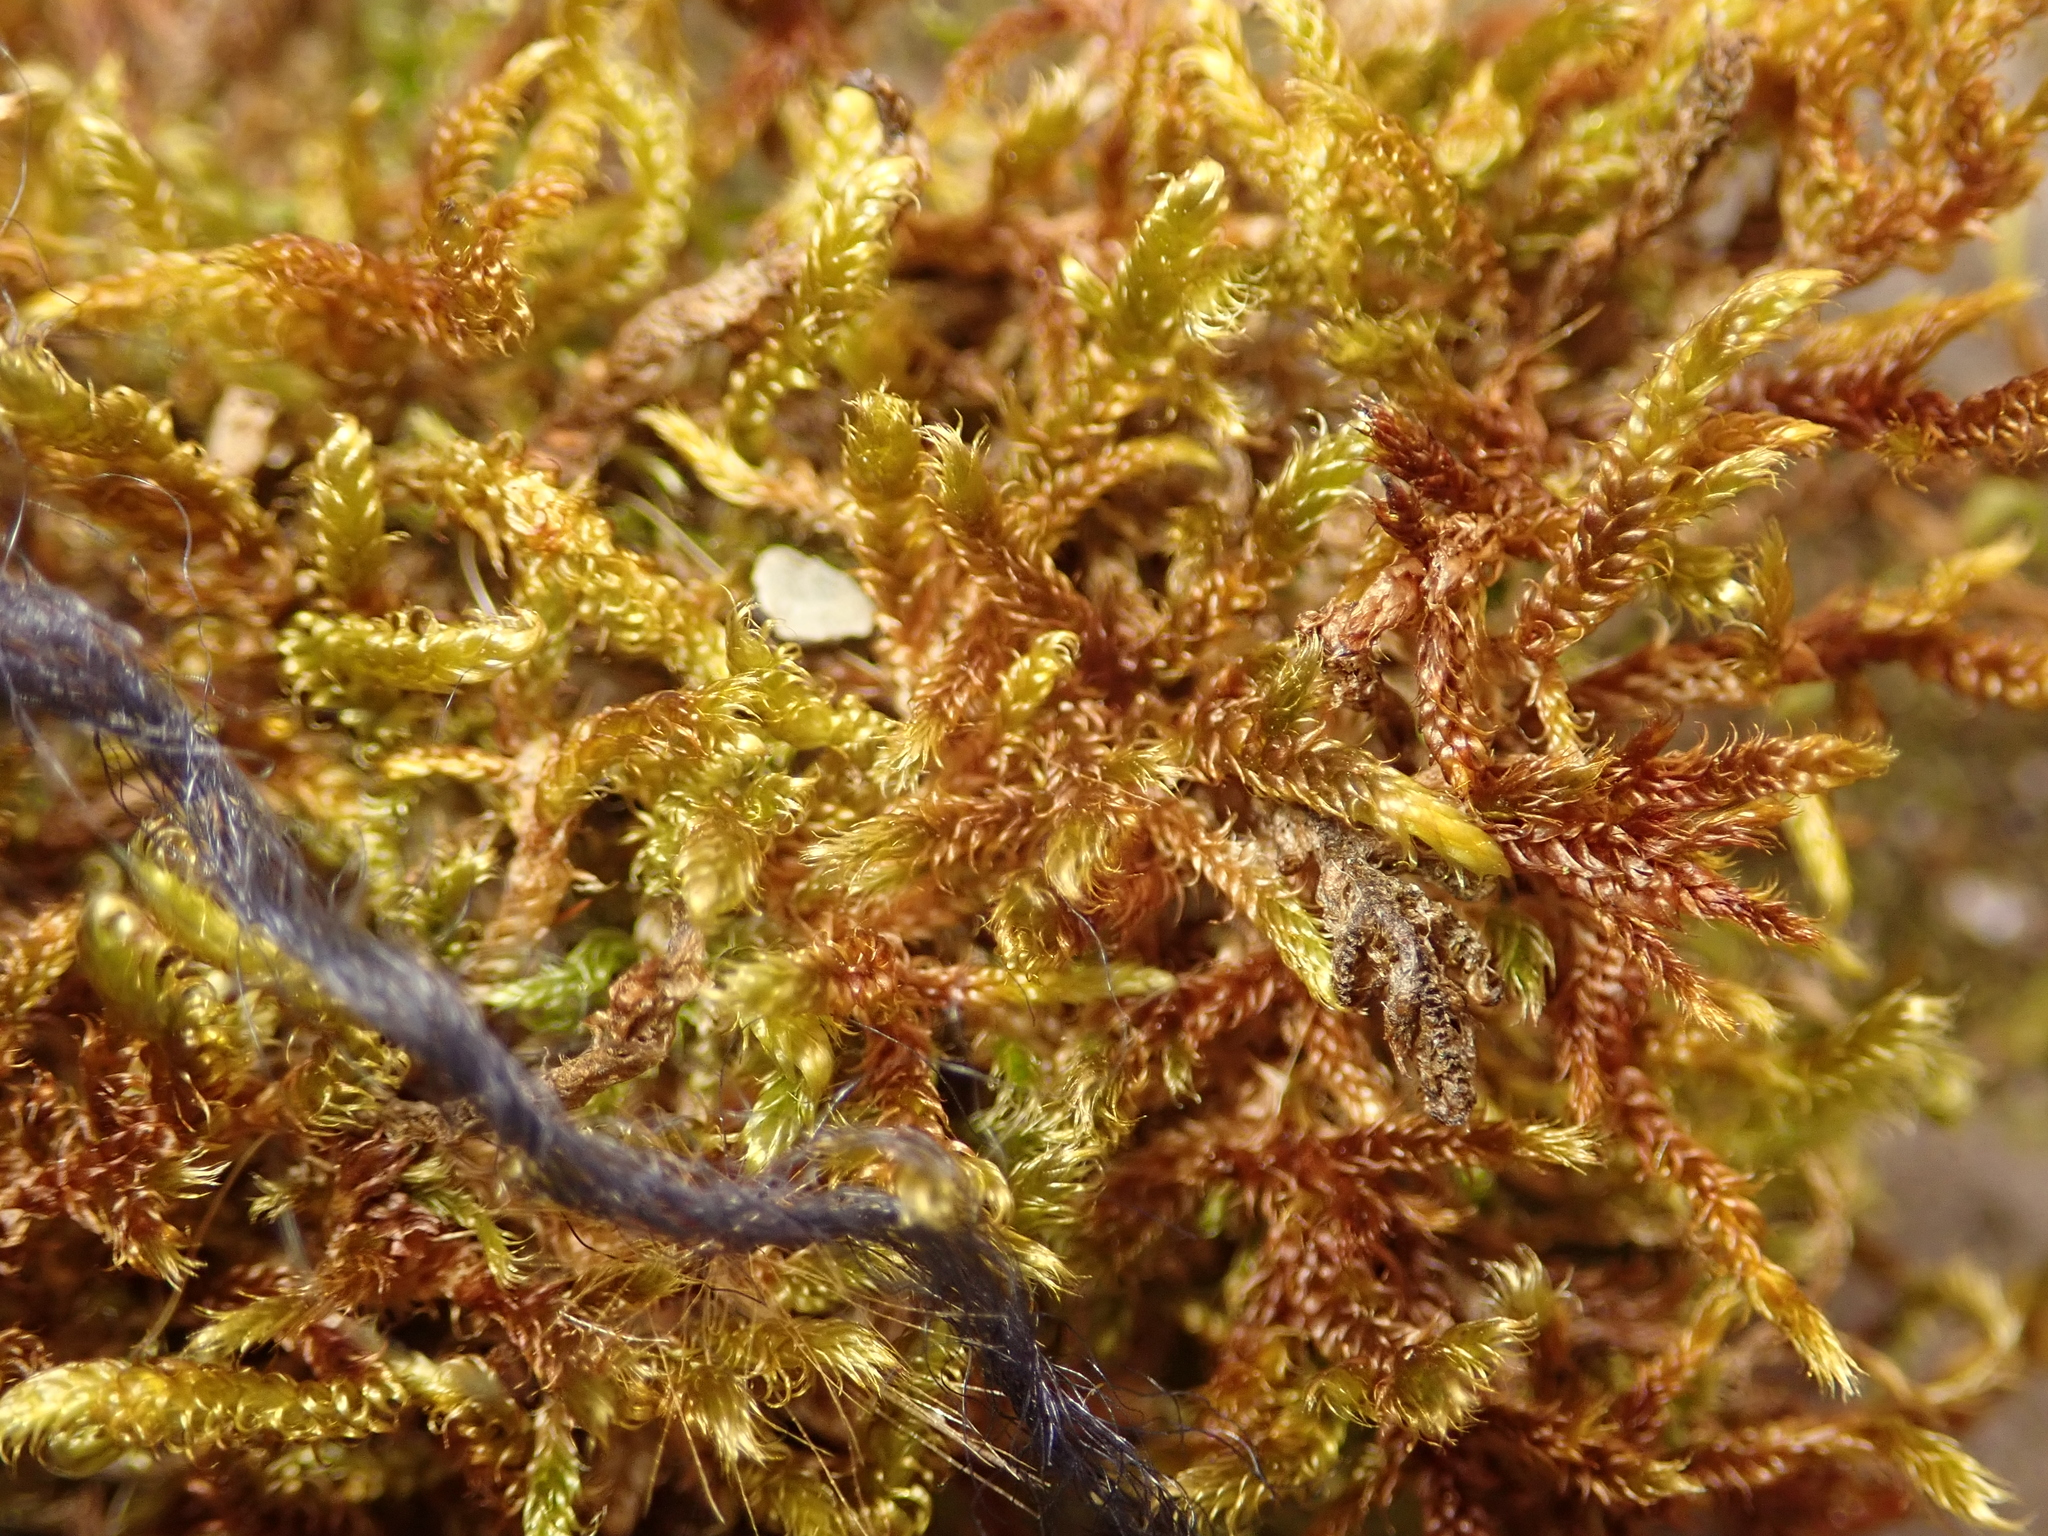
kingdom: Plantae
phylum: Bryophyta
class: Bryopsida
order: Hypnales
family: Hypnaceae
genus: Hypnum
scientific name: Hypnum cupressiforme
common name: Cypress-leaved plait-moss
